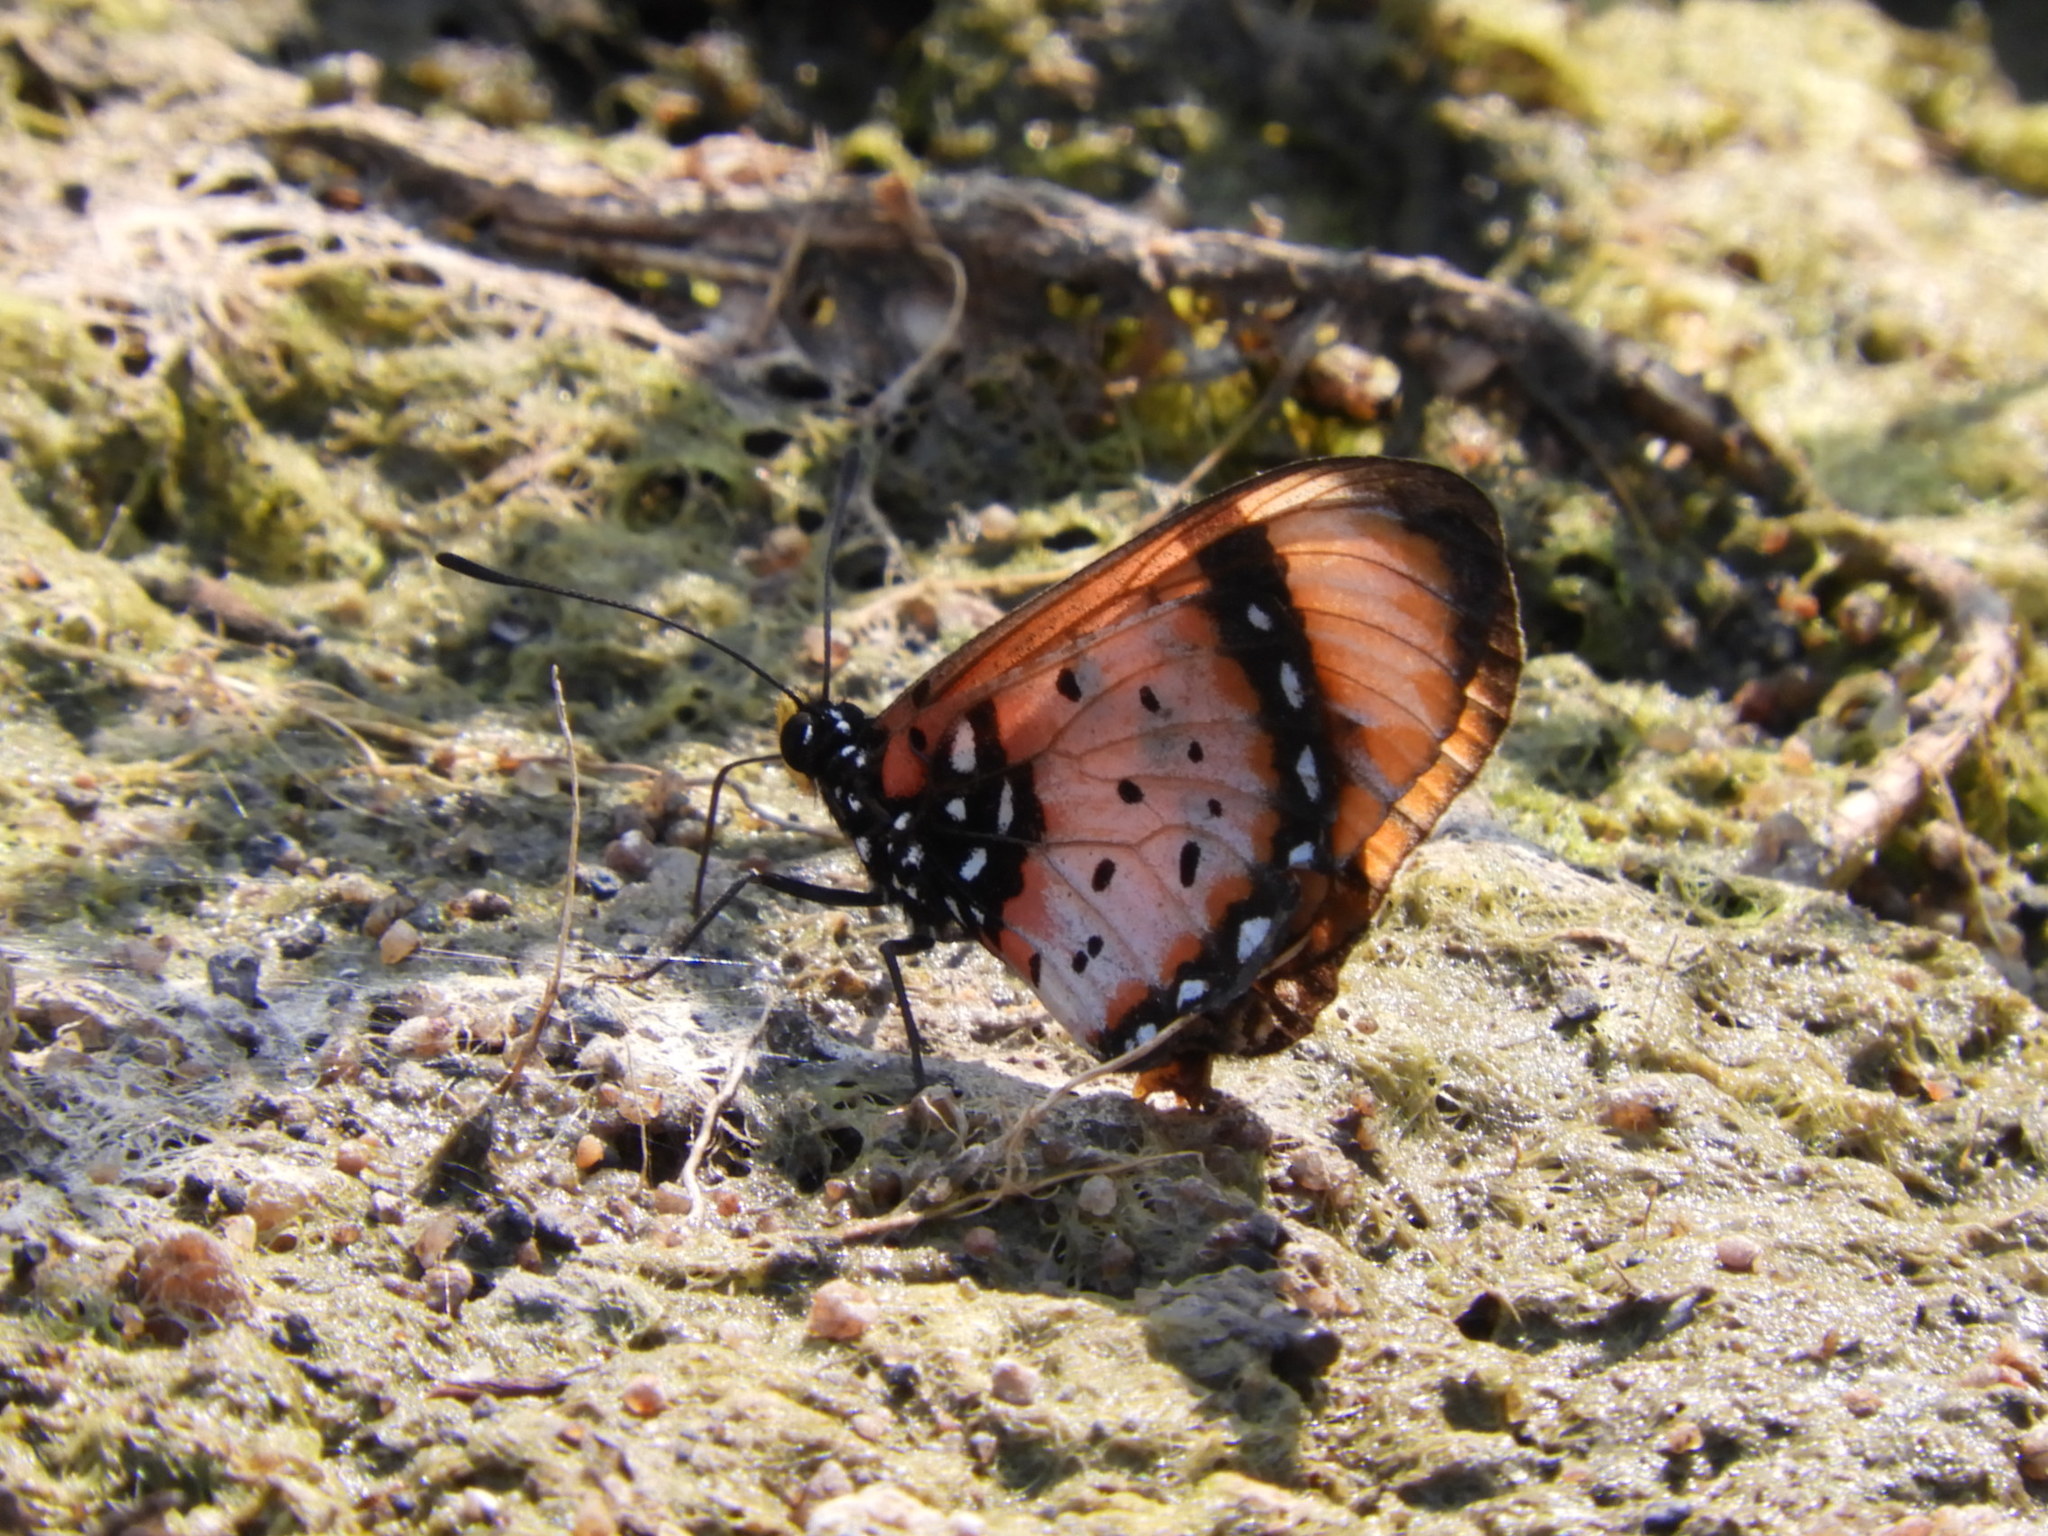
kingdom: Animalia
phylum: Arthropoda
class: Insecta
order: Lepidoptera
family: Nymphalidae
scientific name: Nymphalidae
